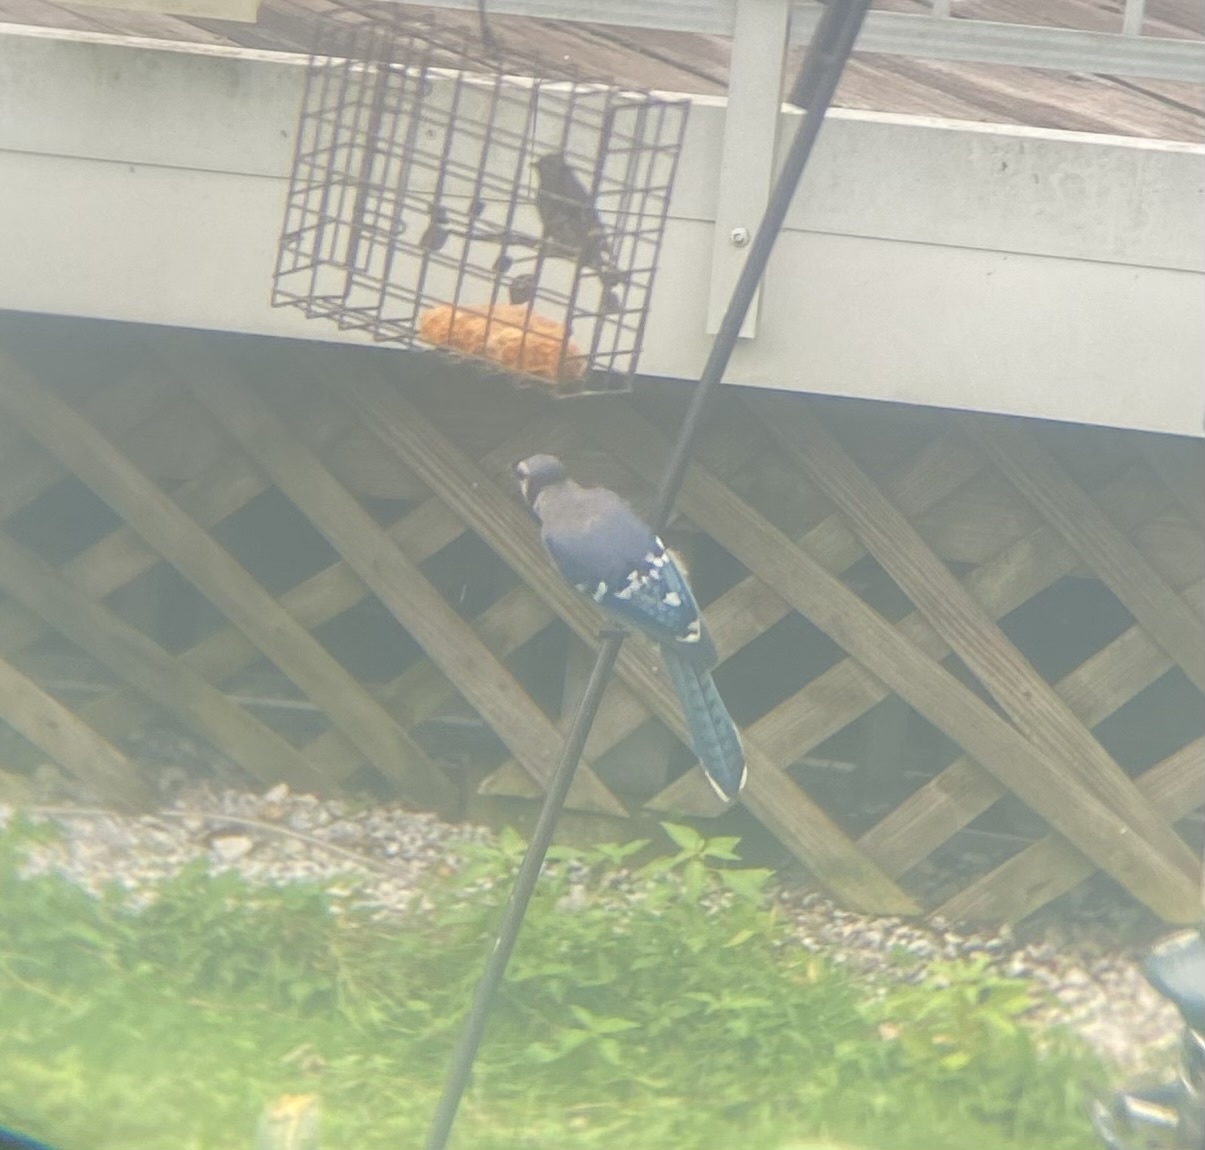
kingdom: Animalia
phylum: Chordata
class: Aves
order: Passeriformes
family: Corvidae
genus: Cyanocitta
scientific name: Cyanocitta cristata
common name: Blue jay
